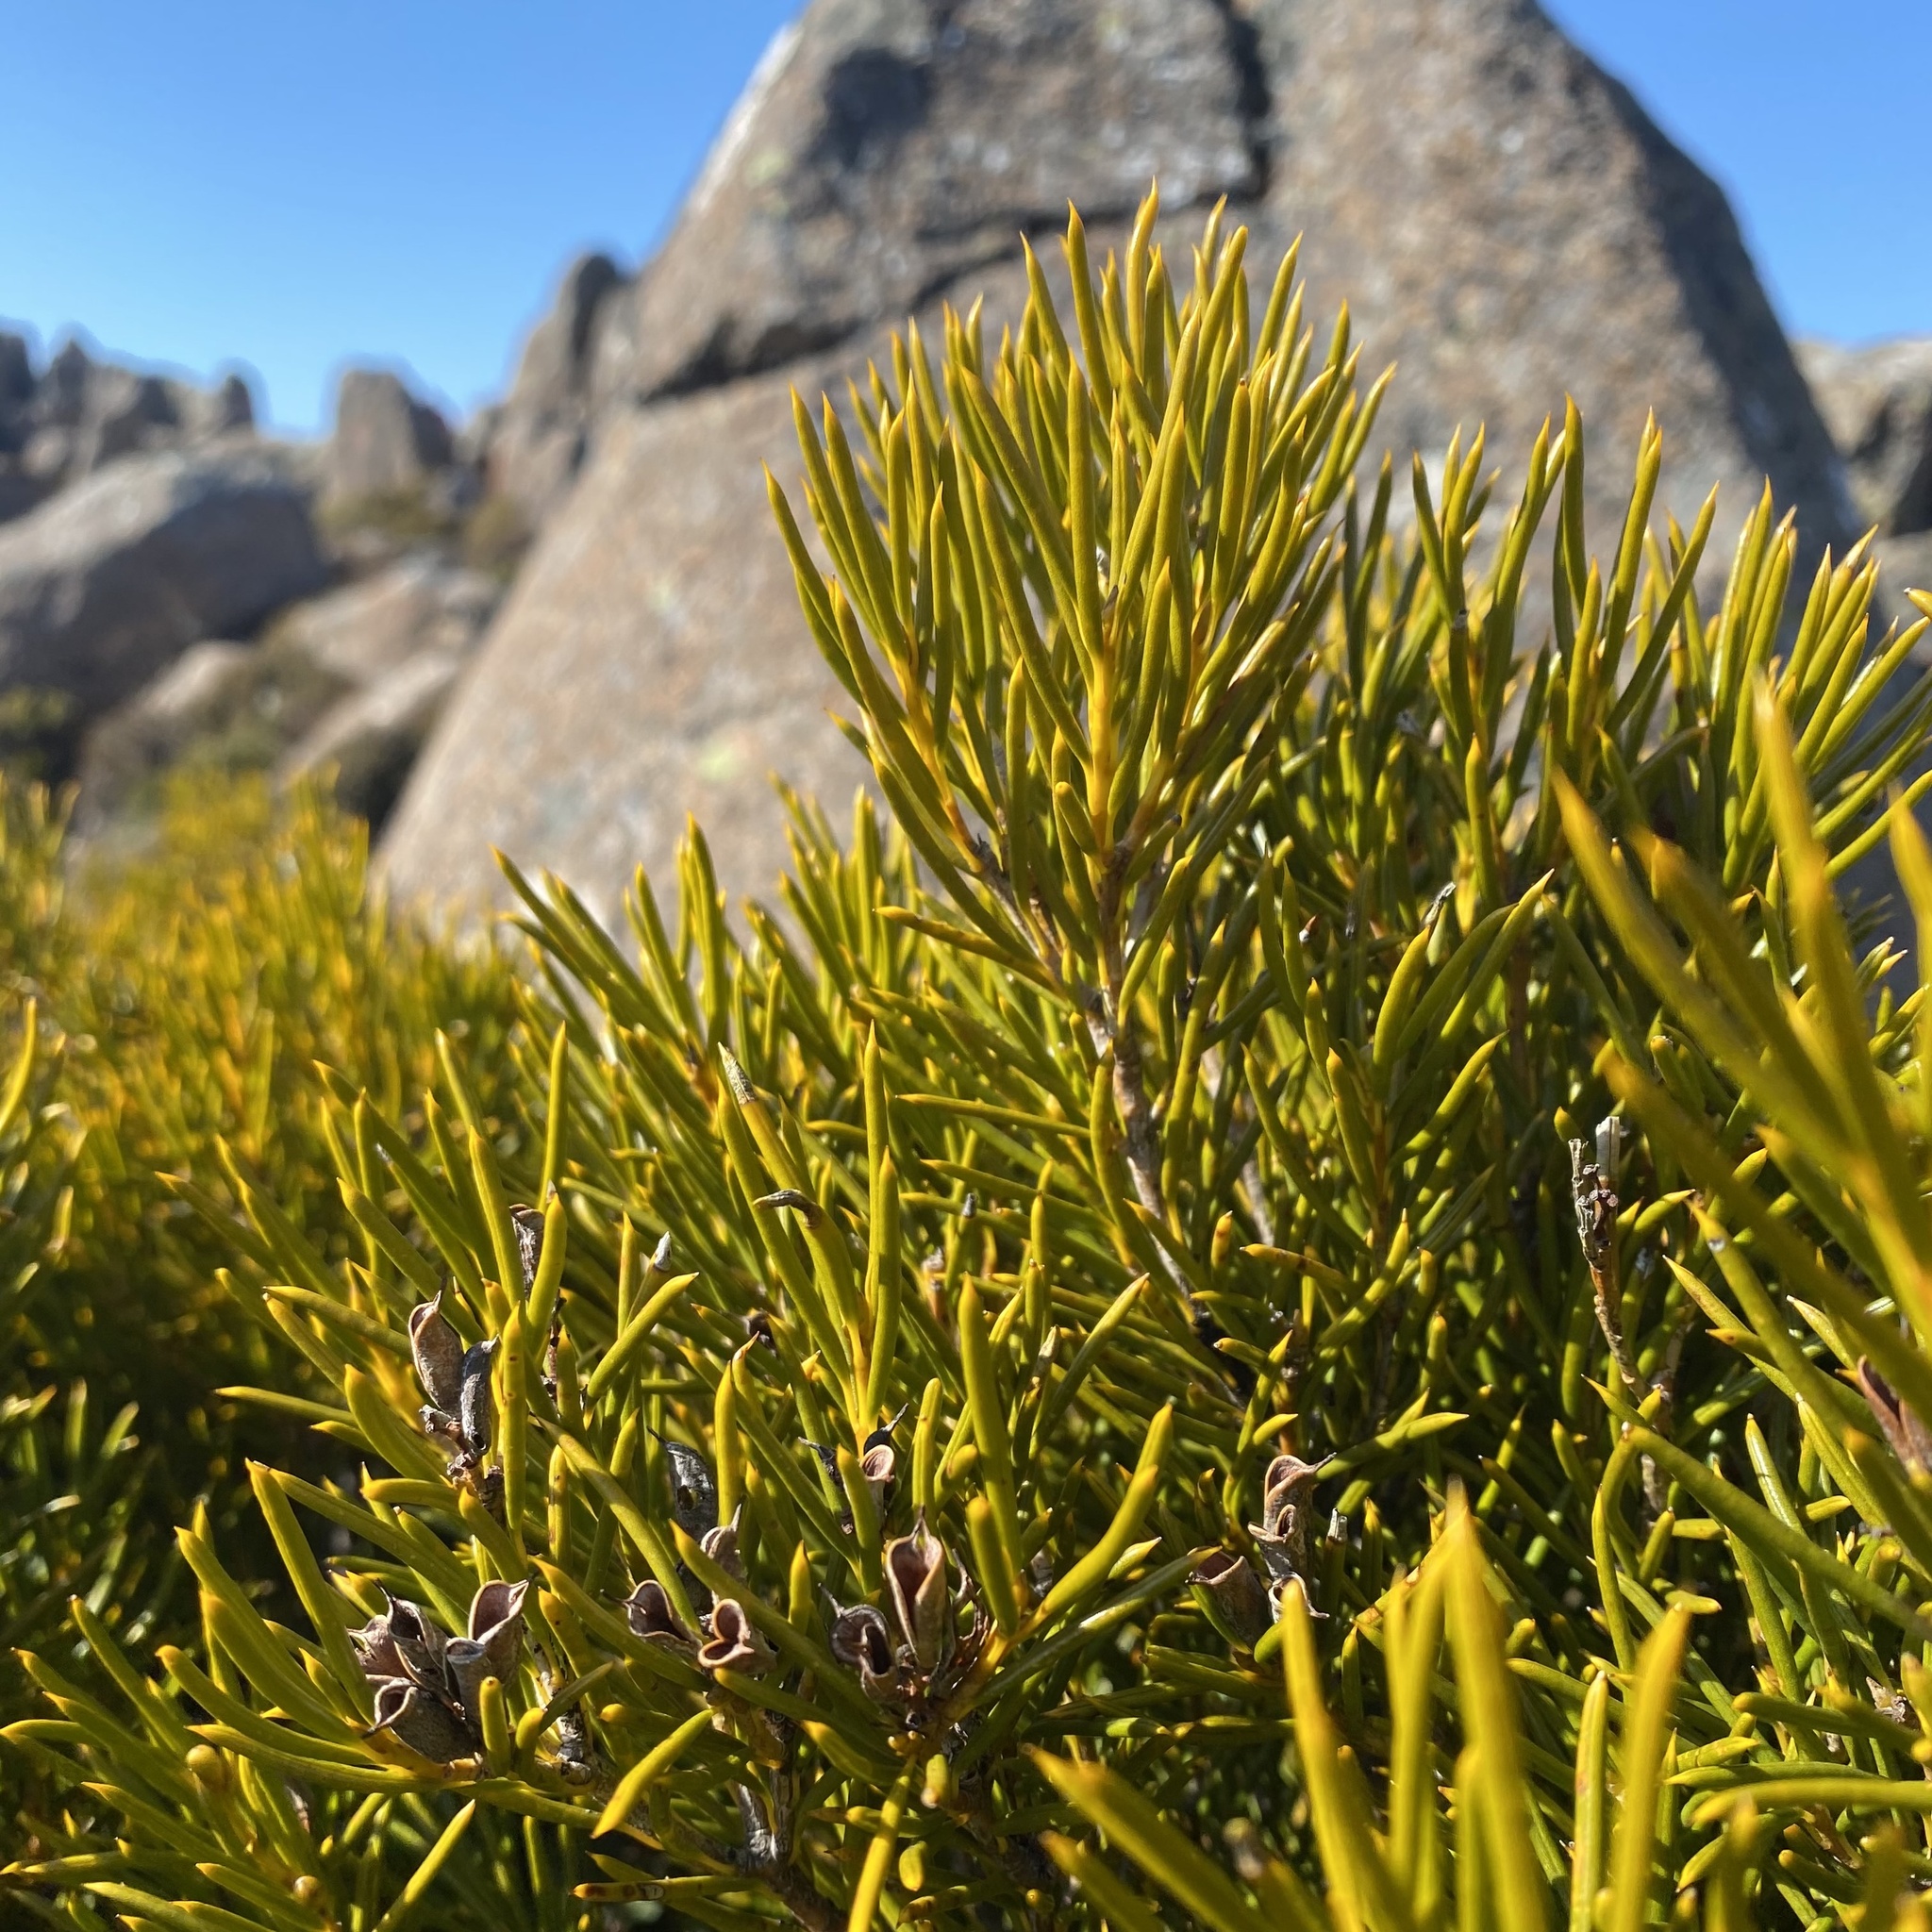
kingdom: Plantae
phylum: Tracheophyta
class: Magnoliopsida
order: Proteales
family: Proteaceae
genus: Orites
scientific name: Orites acicularis
